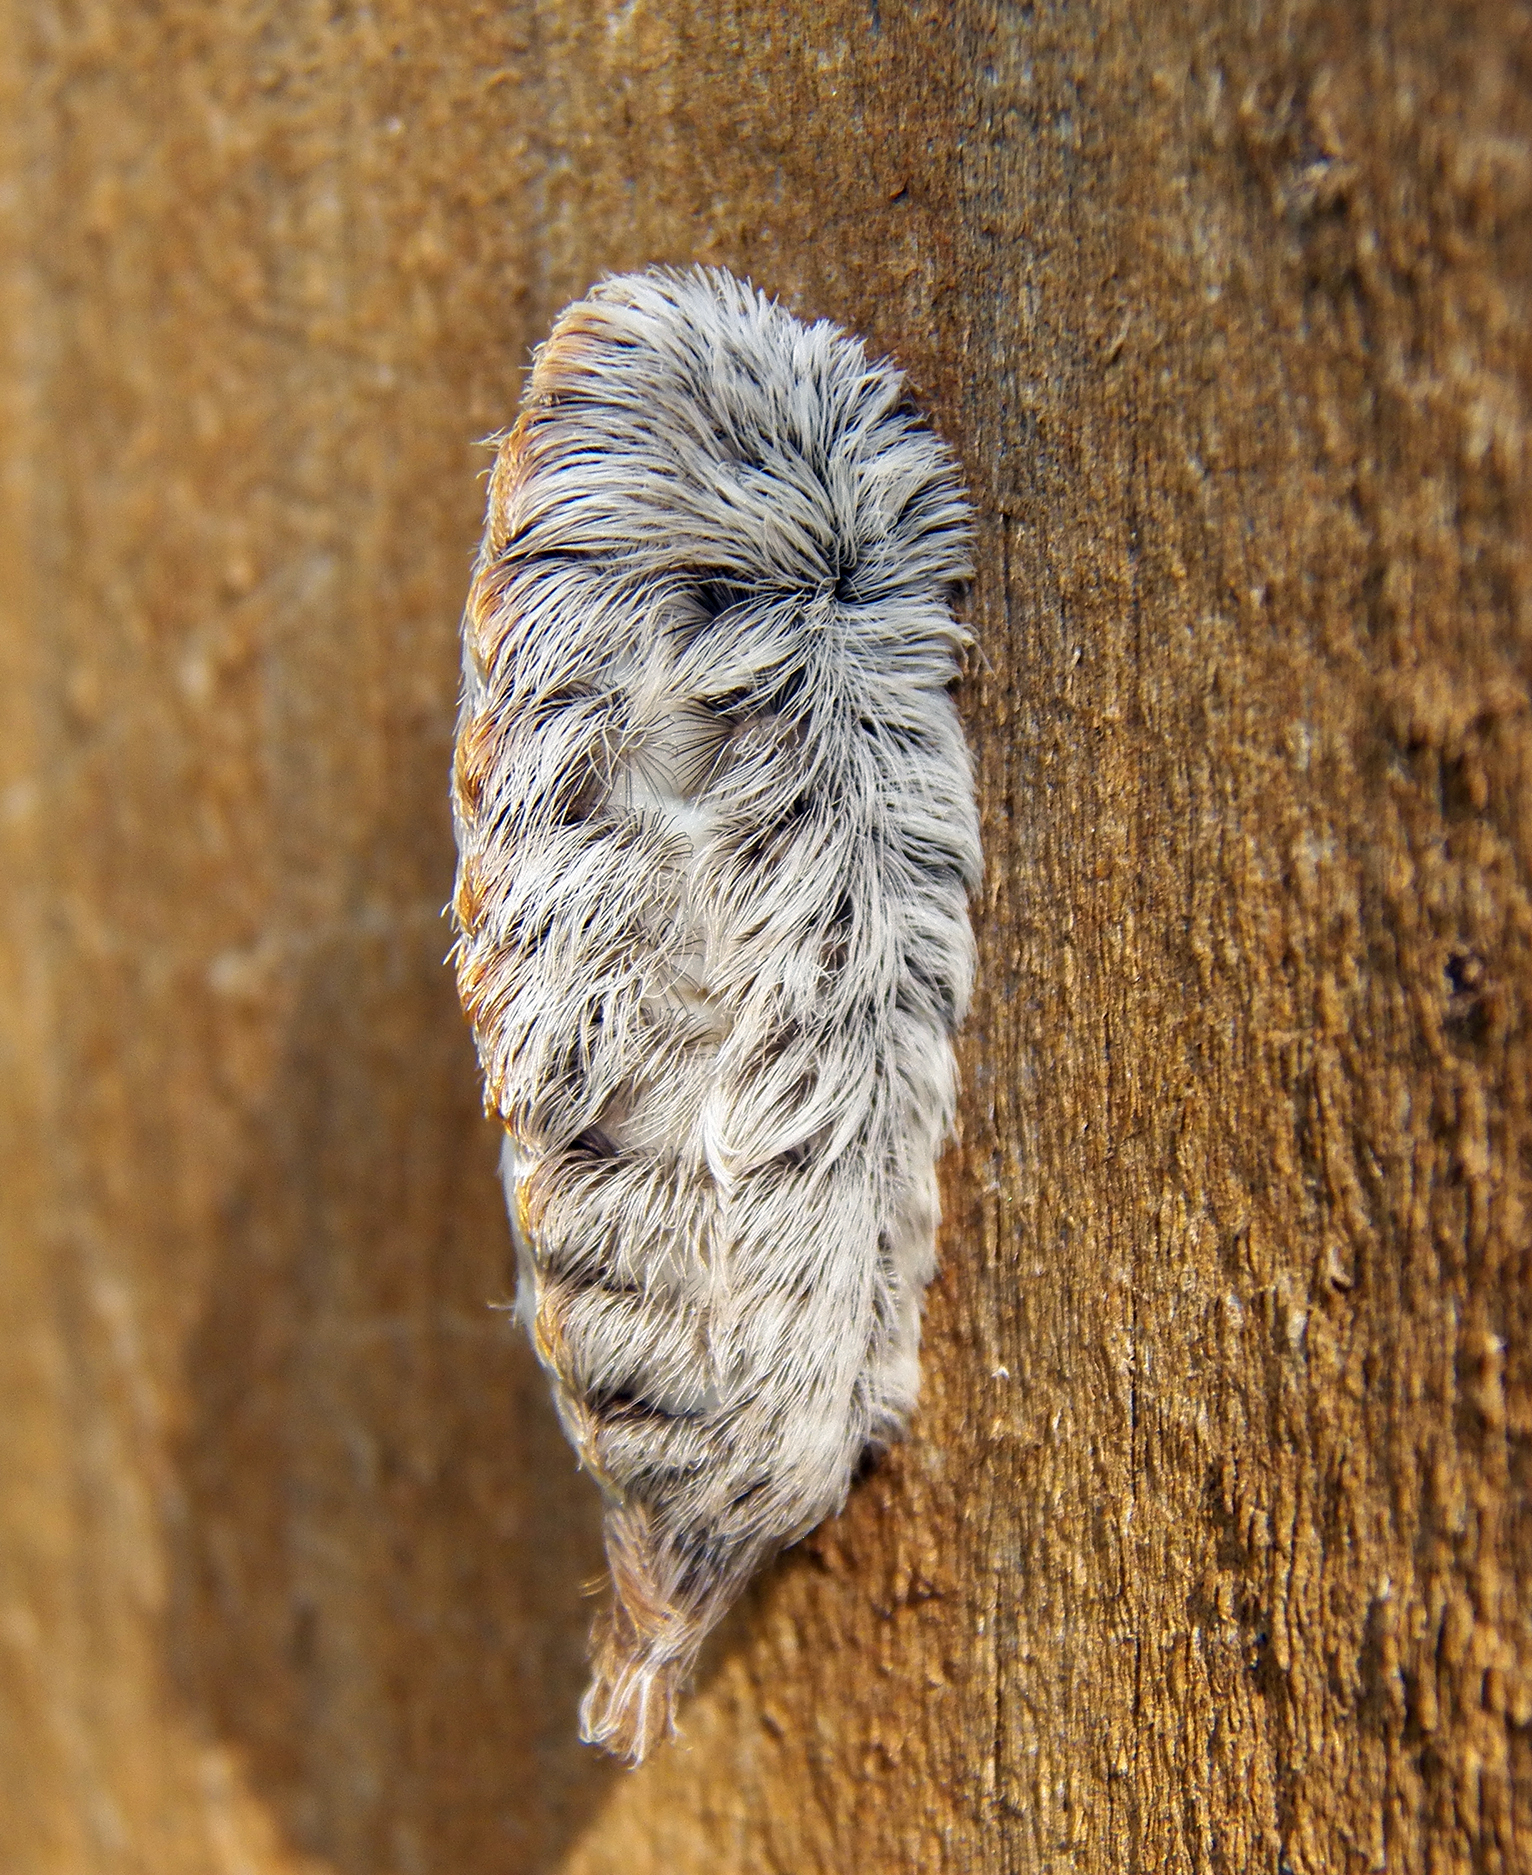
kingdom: Animalia
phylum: Arthropoda
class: Insecta
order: Lepidoptera
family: Megalopygidae
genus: Megalopyge
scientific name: Megalopyge opercularis
